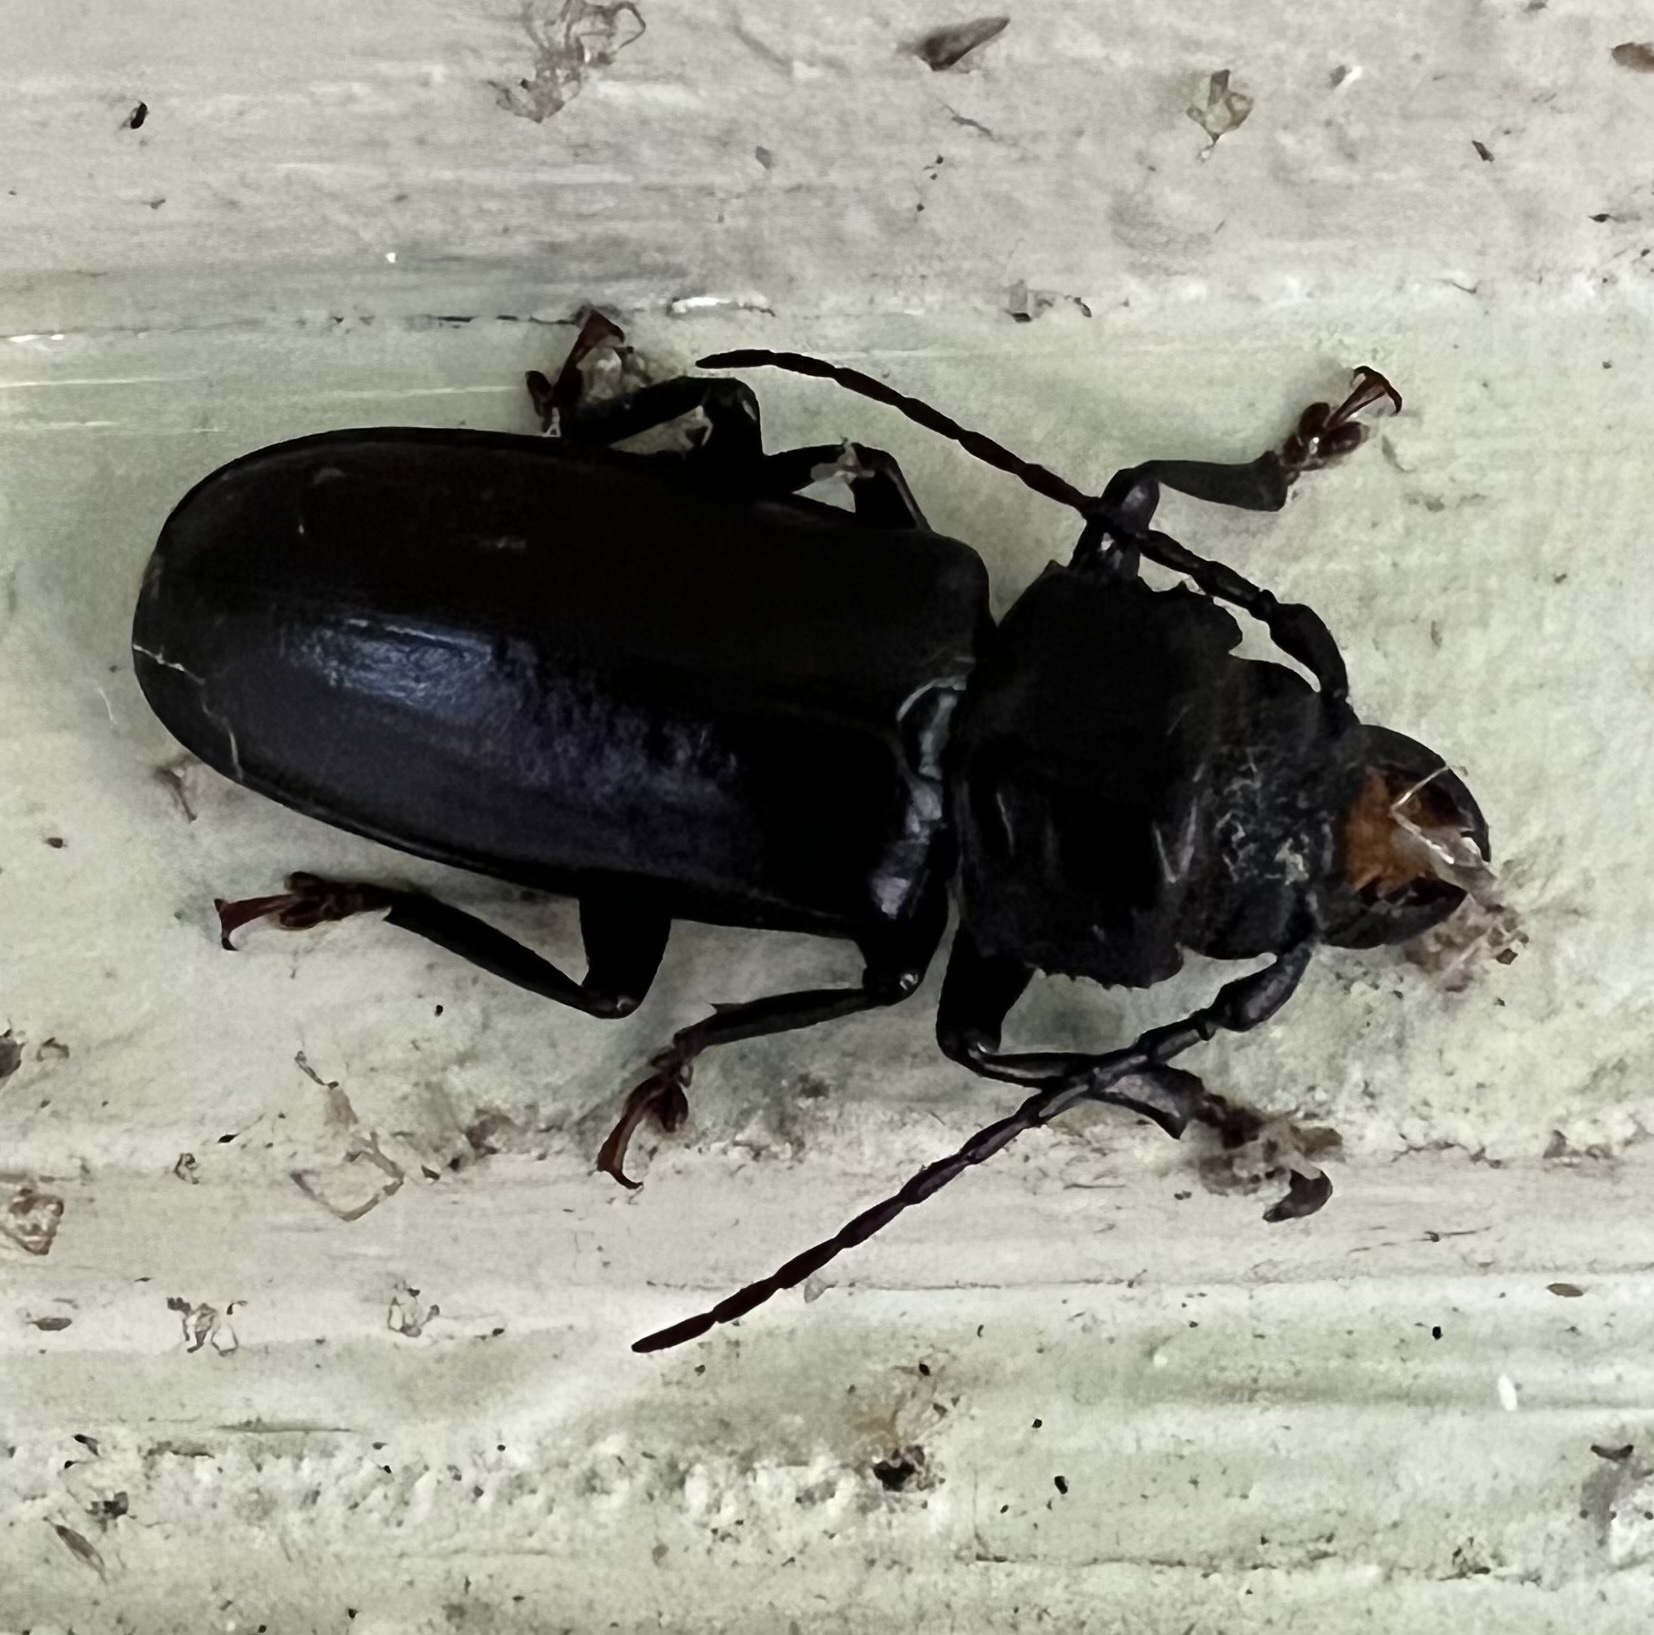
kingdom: Animalia
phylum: Arthropoda
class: Insecta
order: Coleoptera
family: Cerambycidae
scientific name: Cerambycidae
